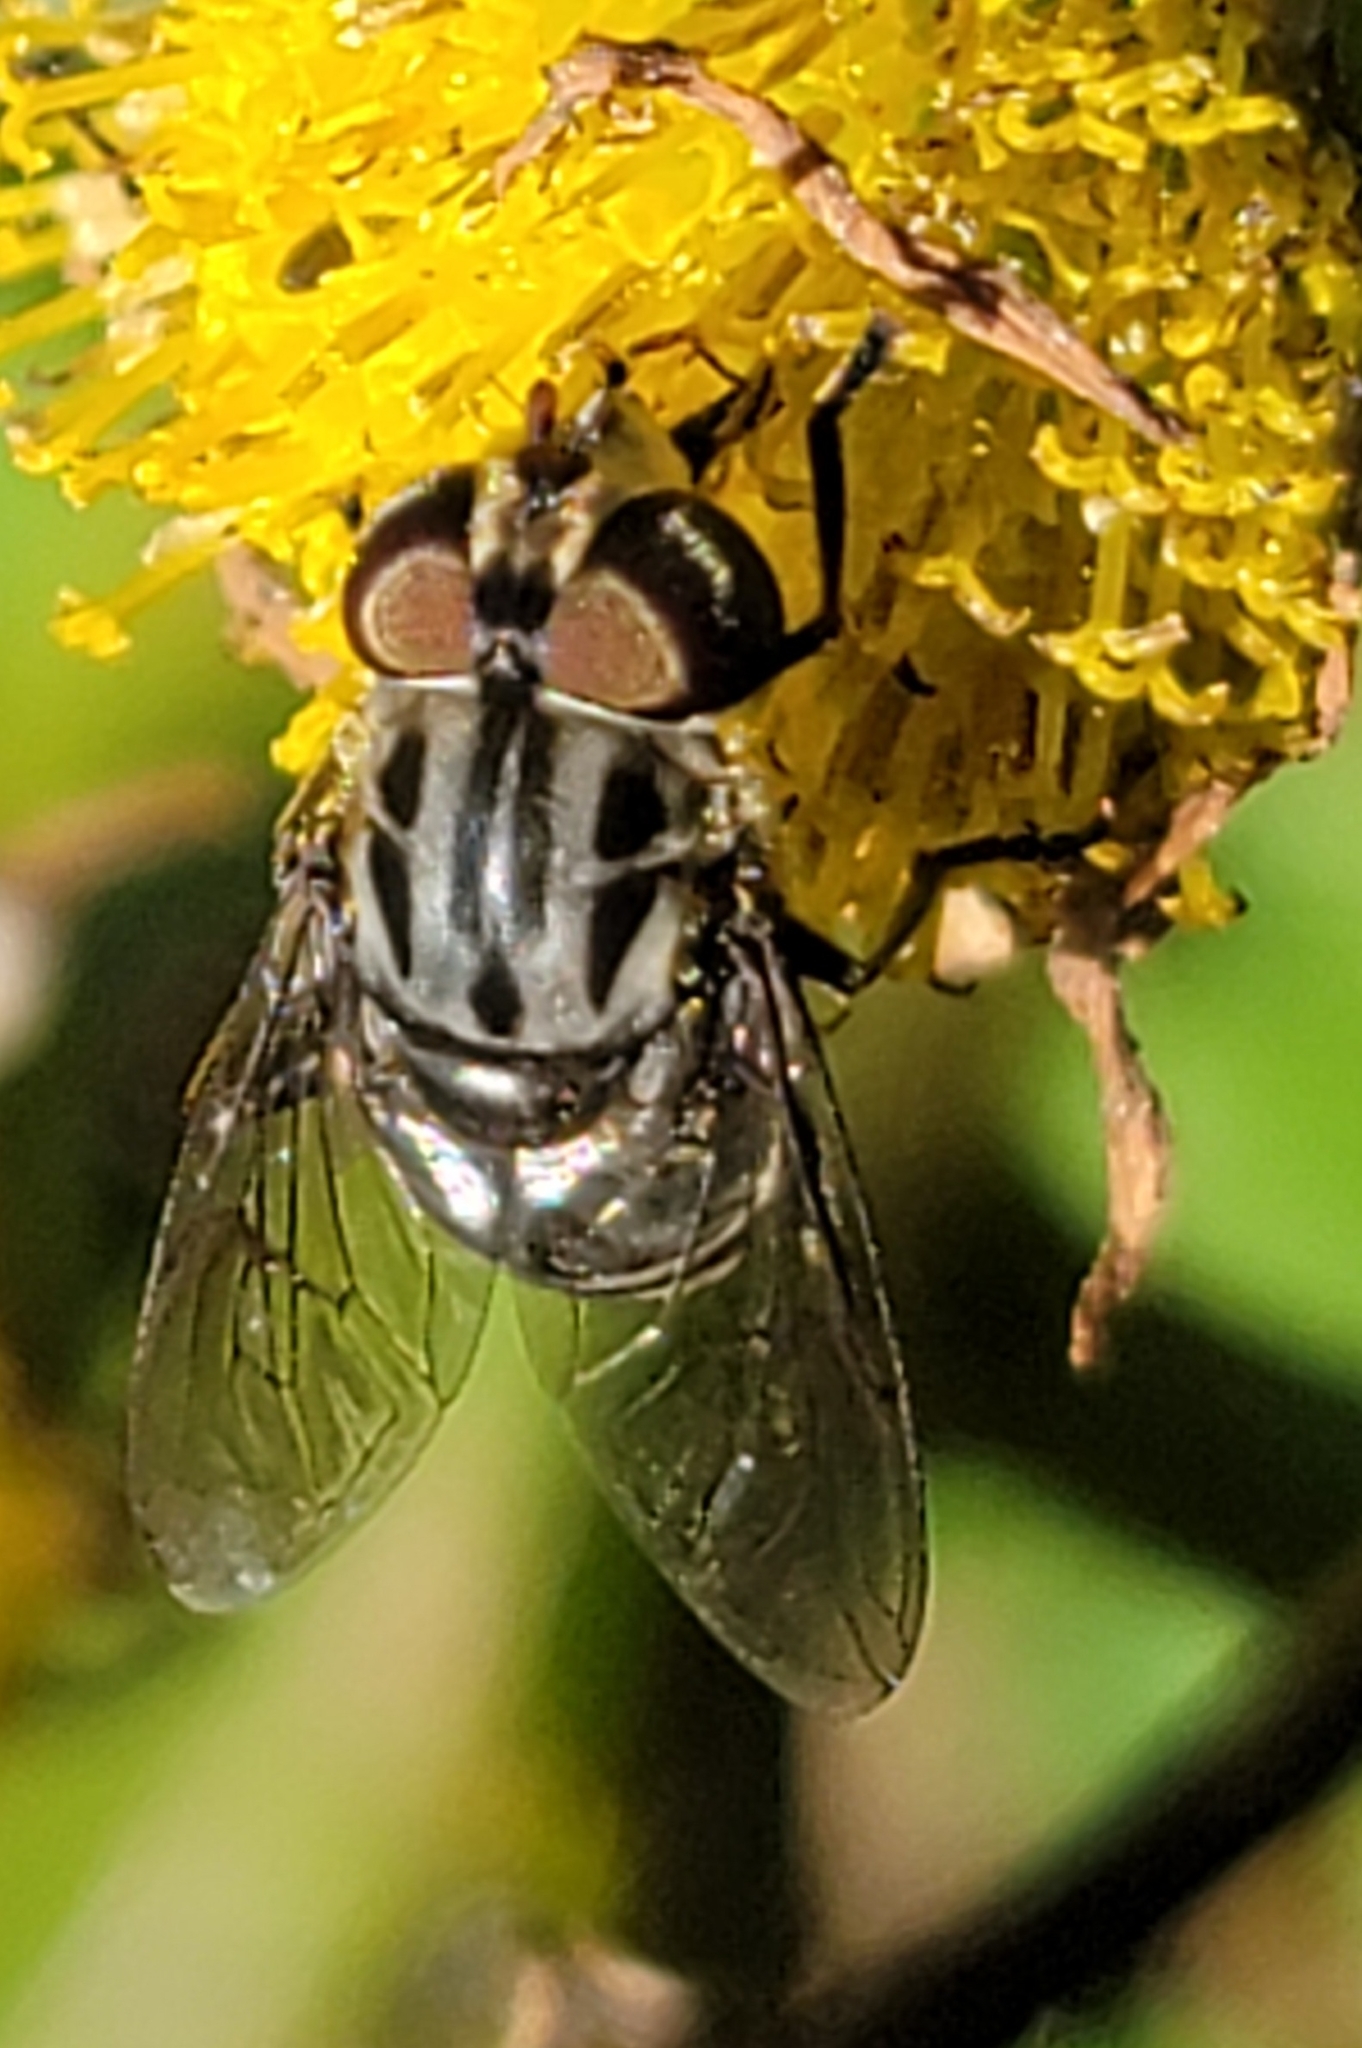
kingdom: Animalia
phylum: Arthropoda
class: Insecta
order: Diptera
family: Syrphidae
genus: Palpada
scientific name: Palpada furcata
